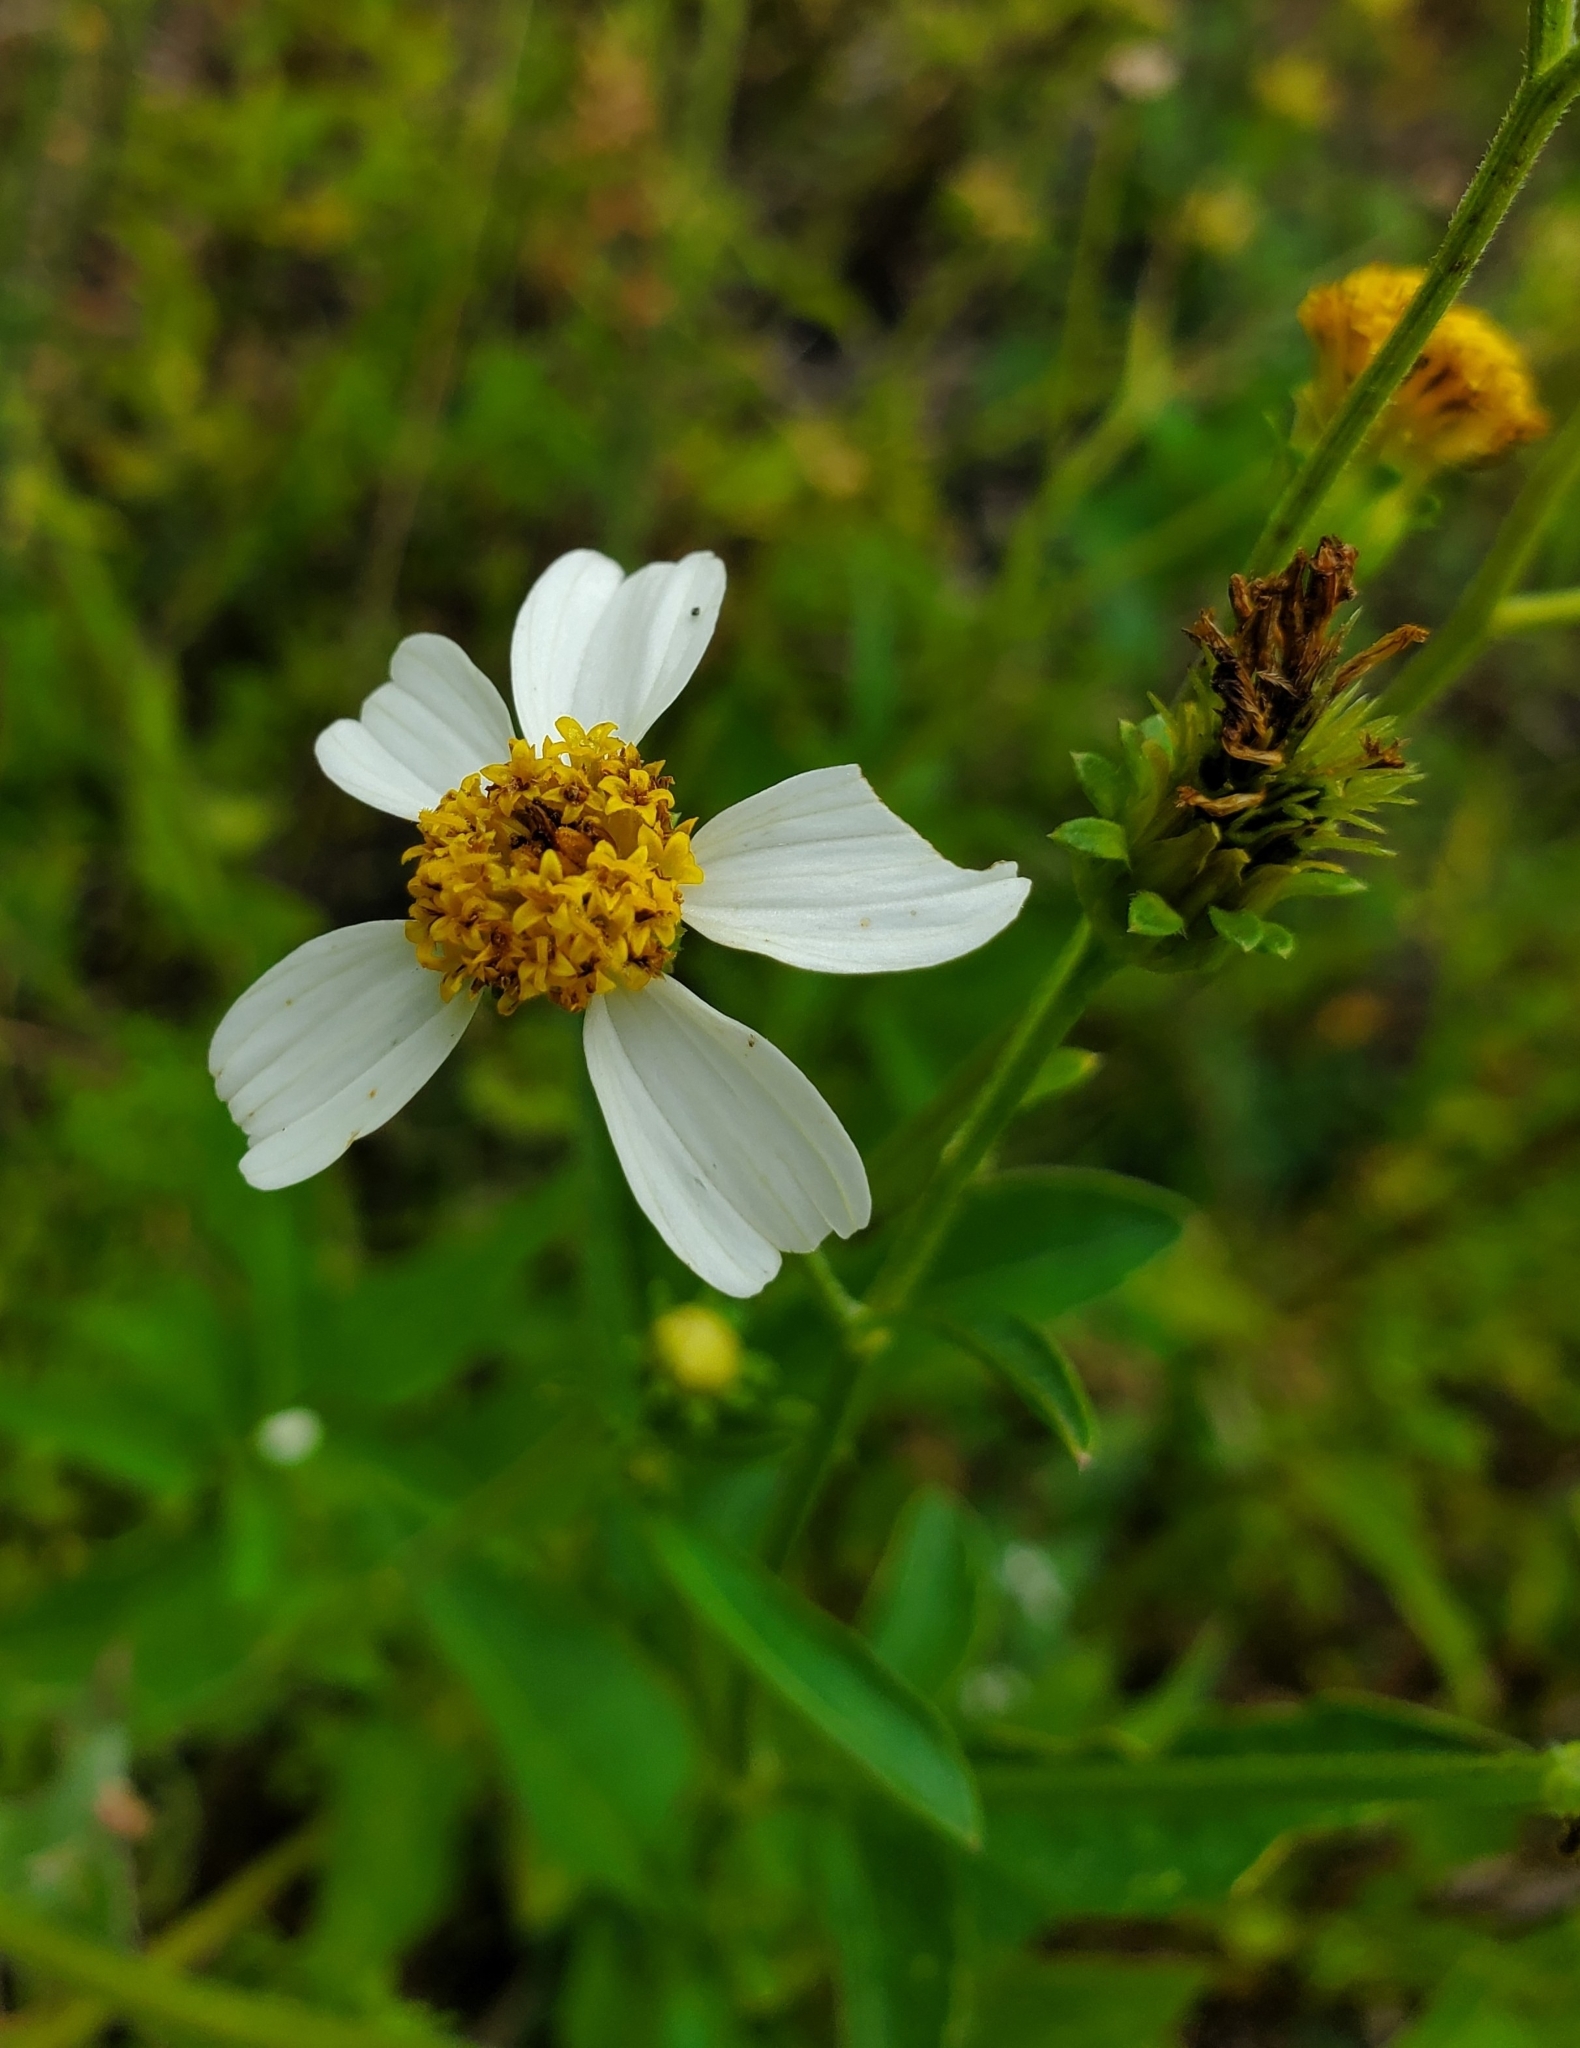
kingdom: Plantae
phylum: Tracheophyta
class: Magnoliopsida
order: Asterales
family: Asteraceae
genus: Bidens
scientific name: Bidens alba
